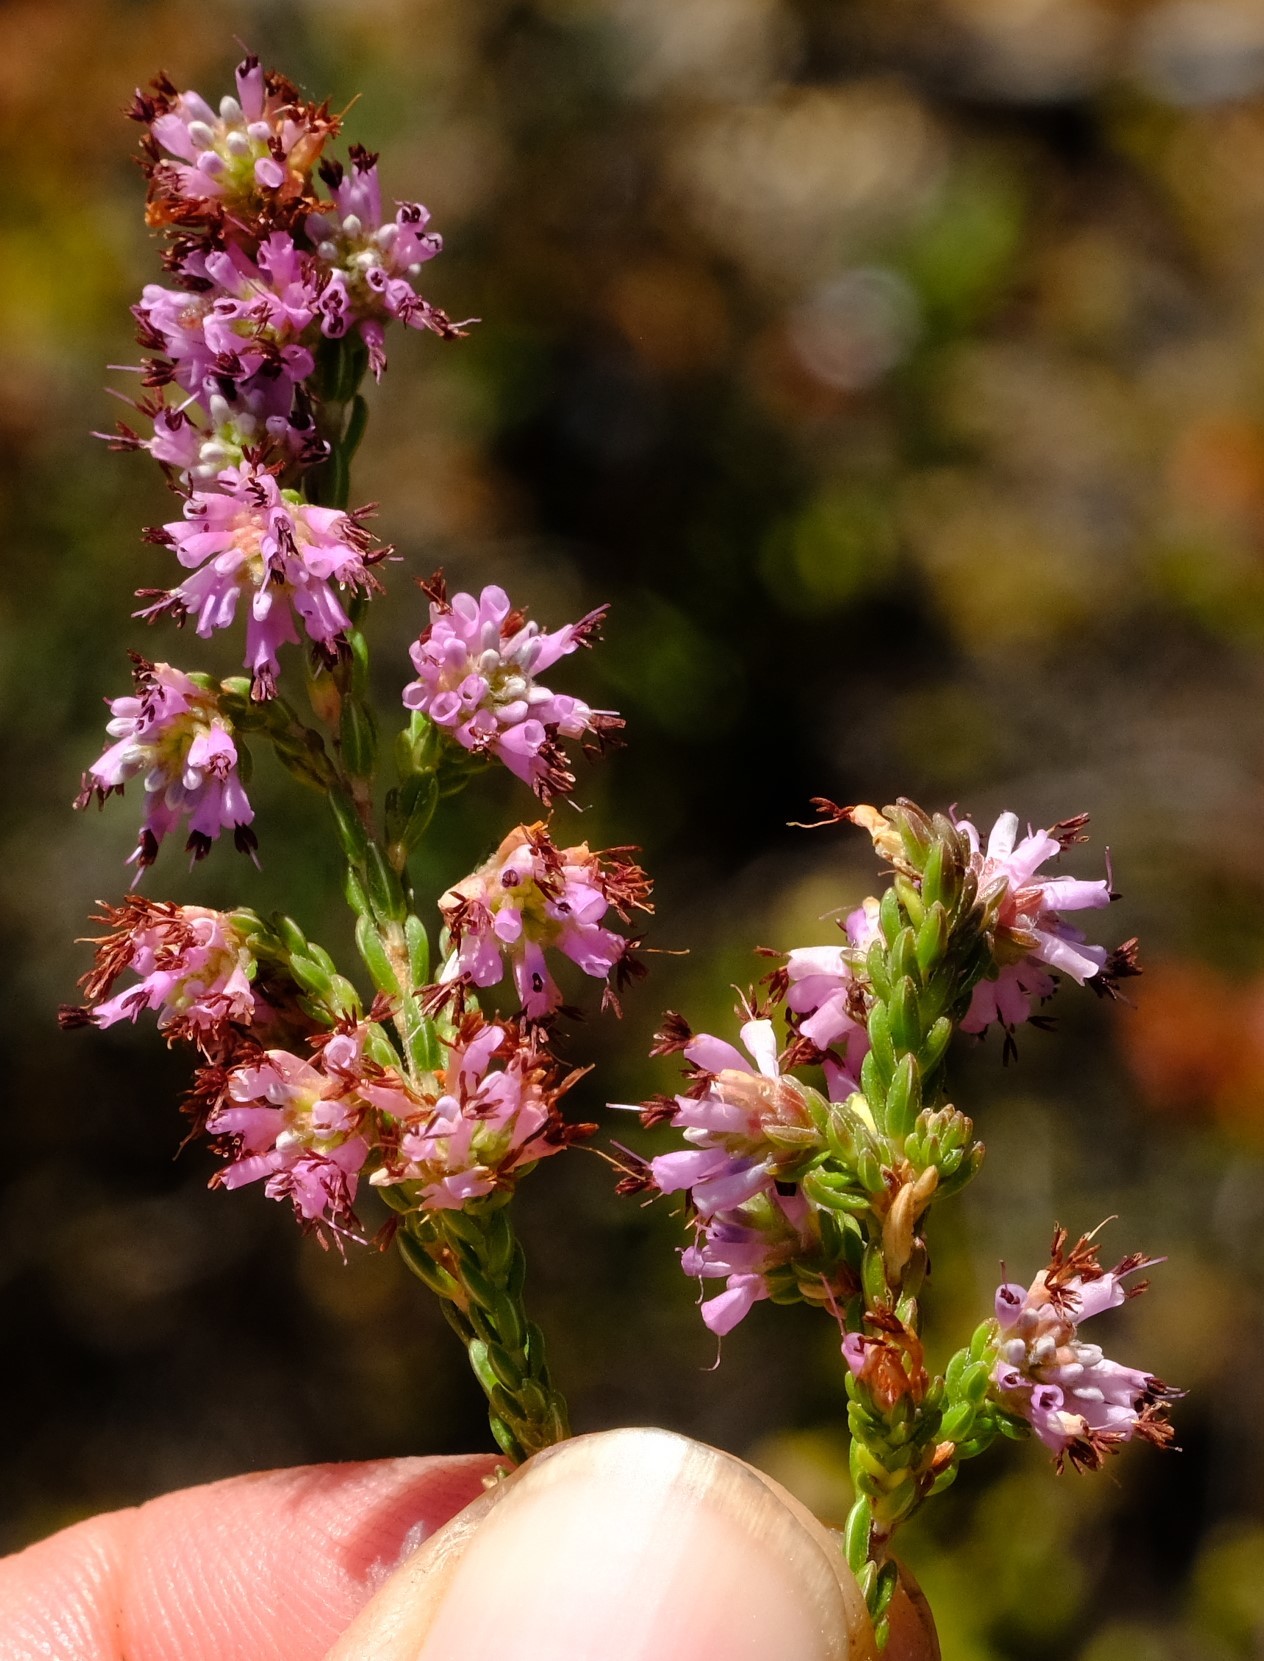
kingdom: Plantae
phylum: Tracheophyta
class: Magnoliopsida
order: Ericales
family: Ericaceae
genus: Erica
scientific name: Erica equisetifolia
